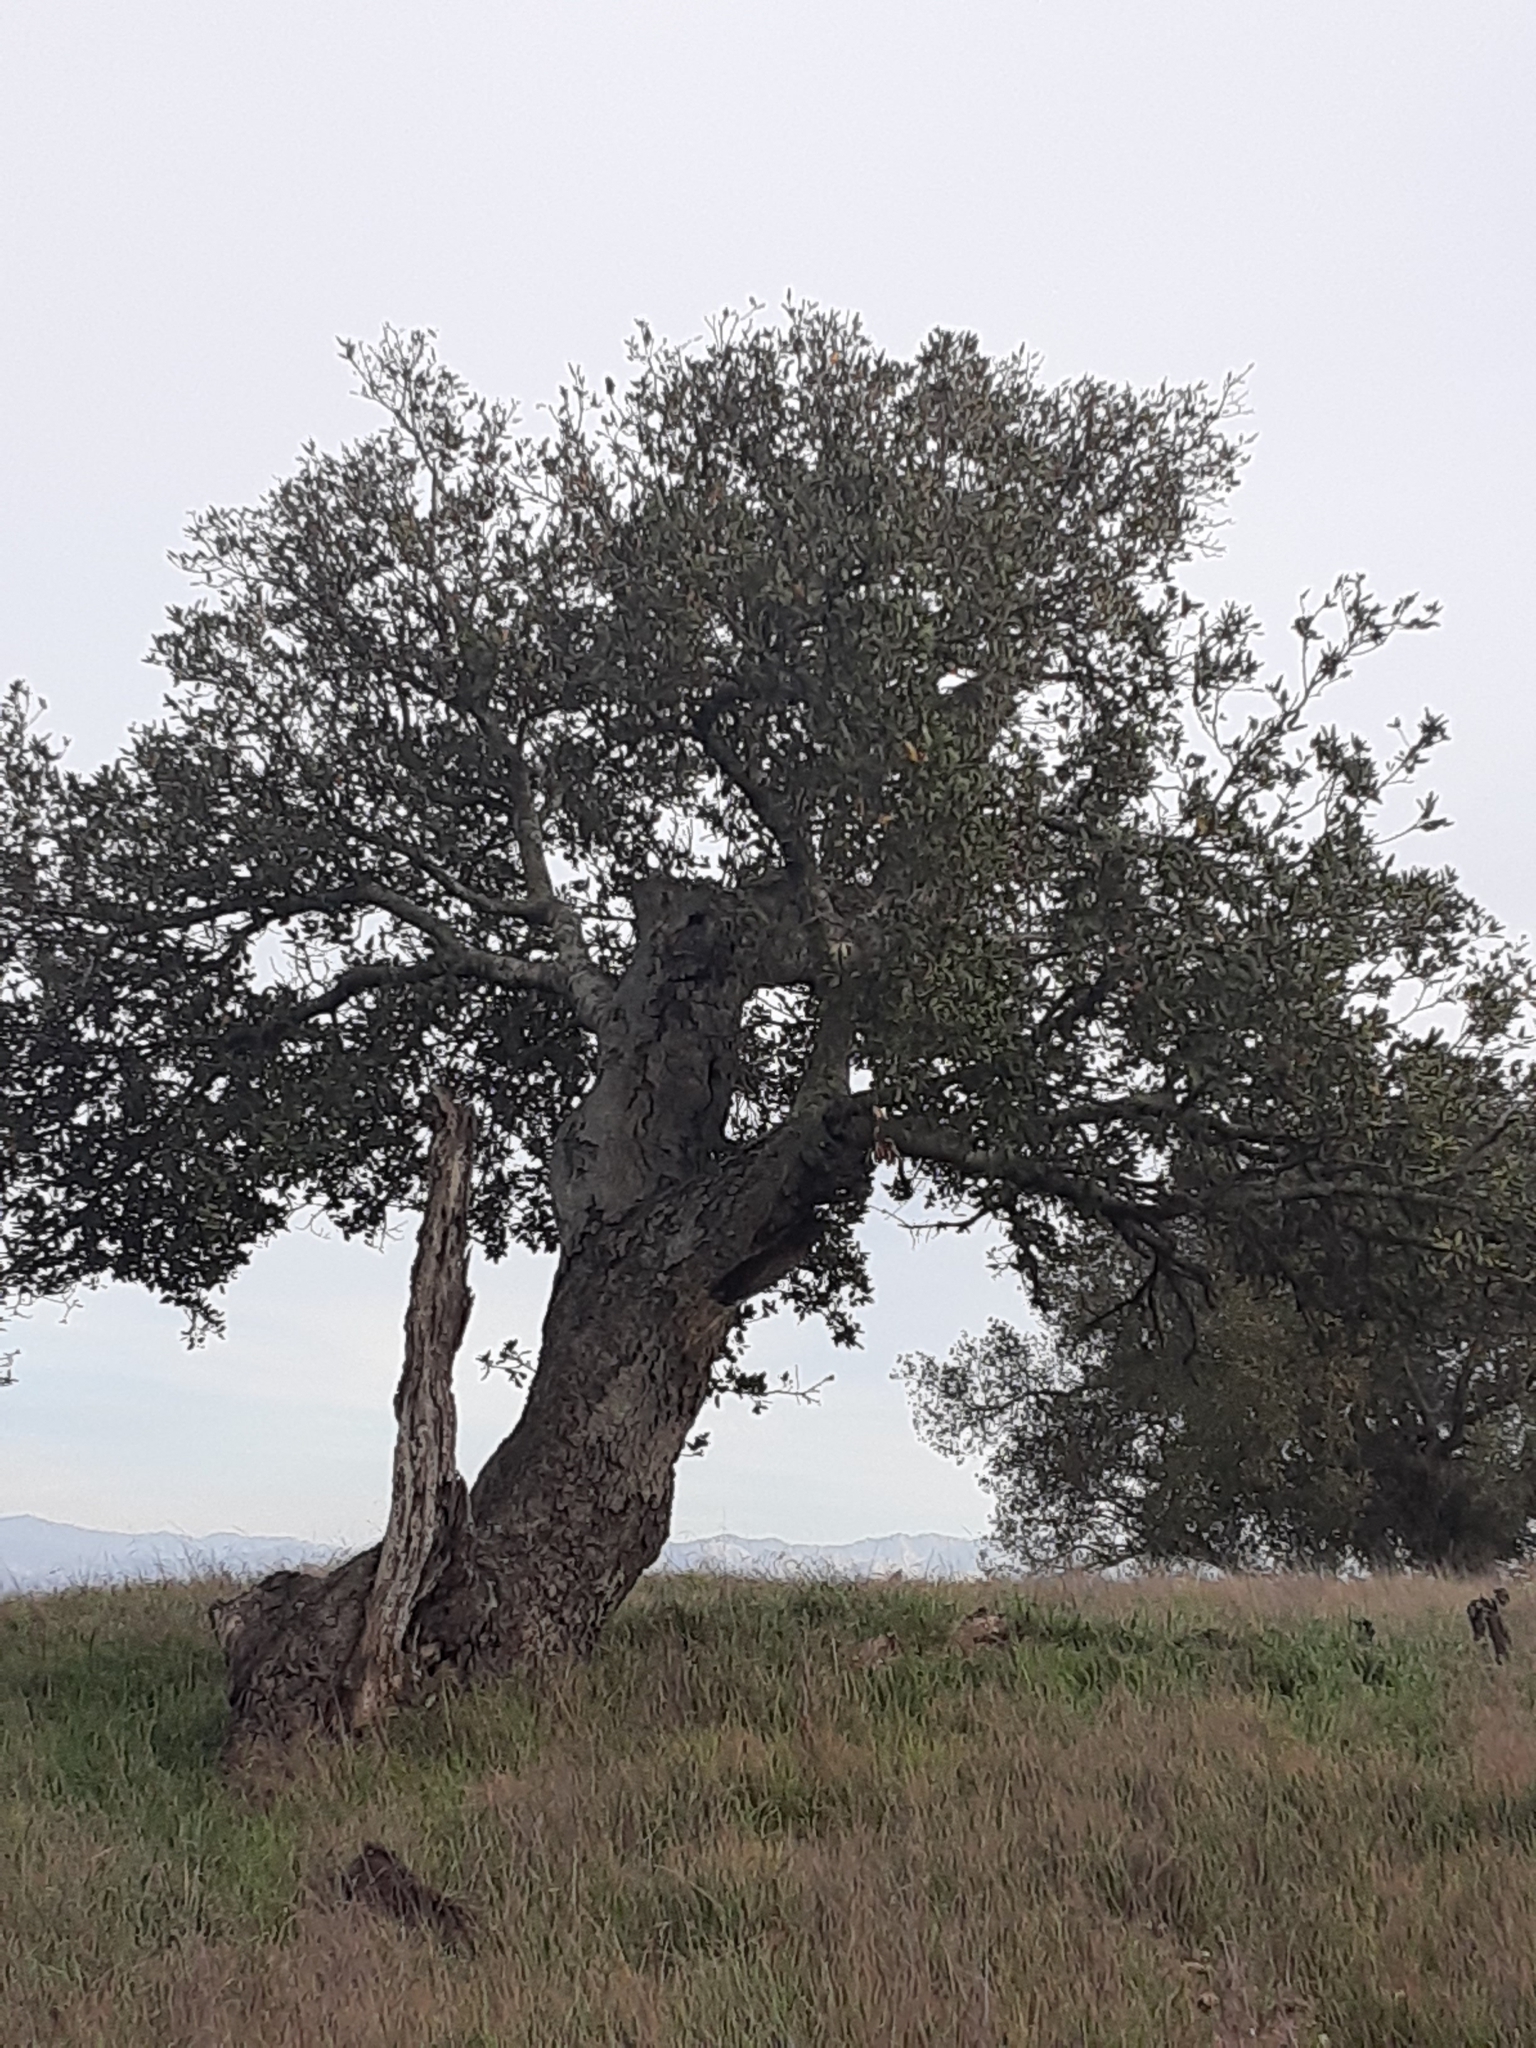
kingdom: Plantae
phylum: Tracheophyta
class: Magnoliopsida
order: Fagales
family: Fagaceae
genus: Quercus
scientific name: Quercus agrifolia
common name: California live oak
